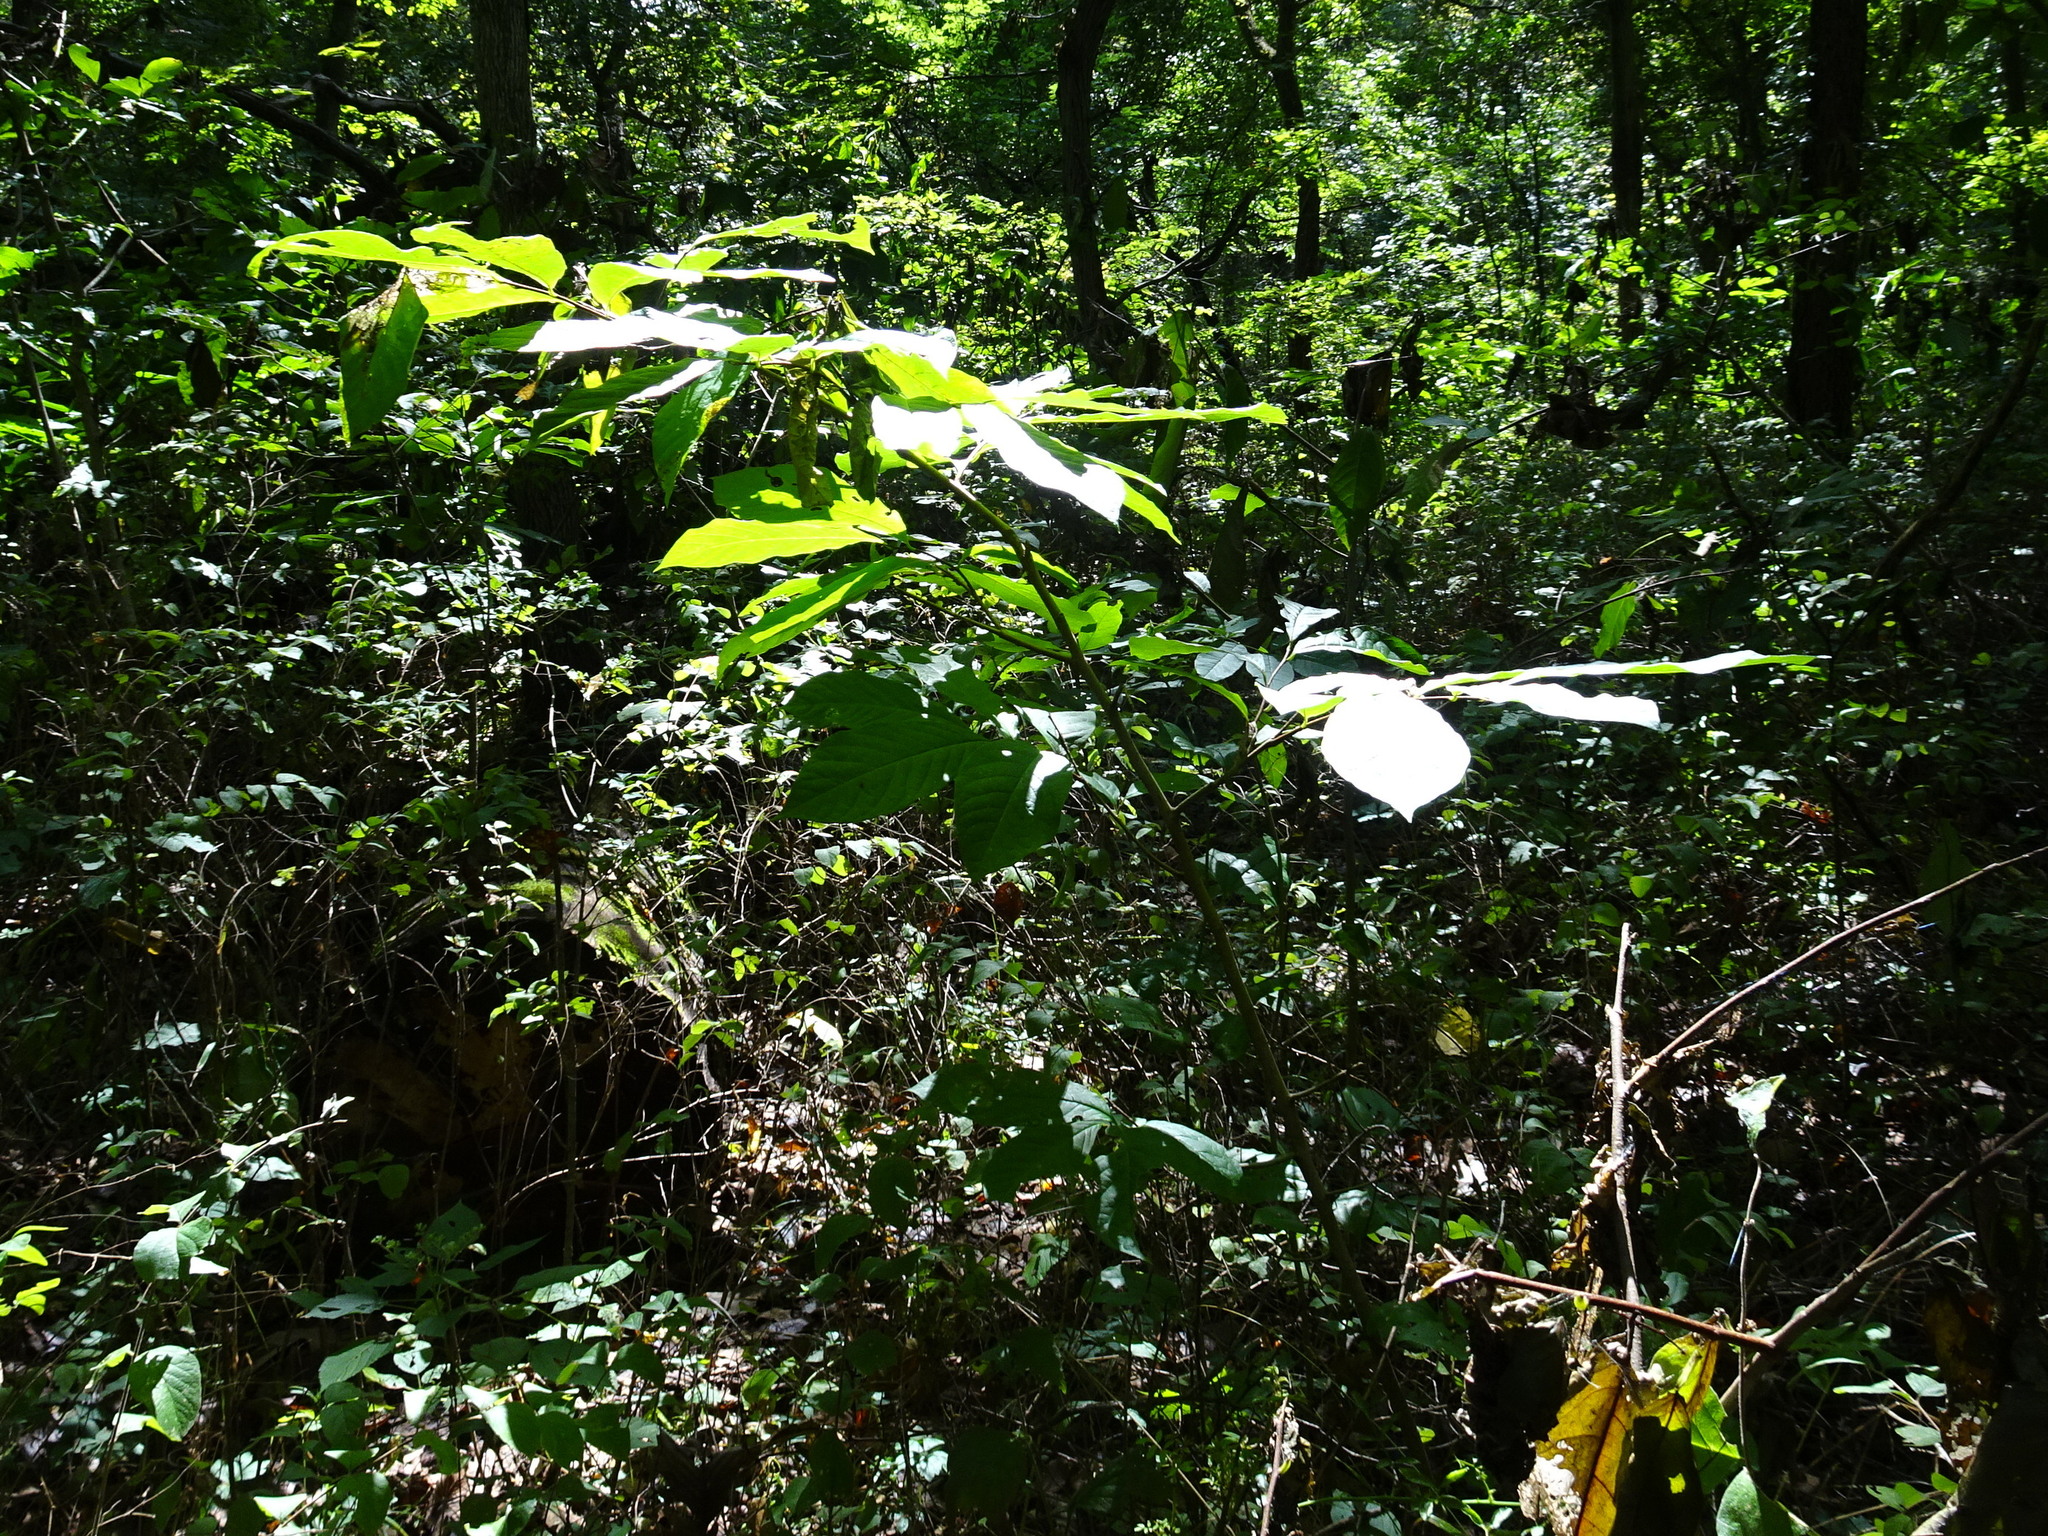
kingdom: Plantae
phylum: Tracheophyta
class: Magnoliopsida
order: Magnoliales
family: Annonaceae
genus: Asimina
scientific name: Asimina triloba
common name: Dog-banana
